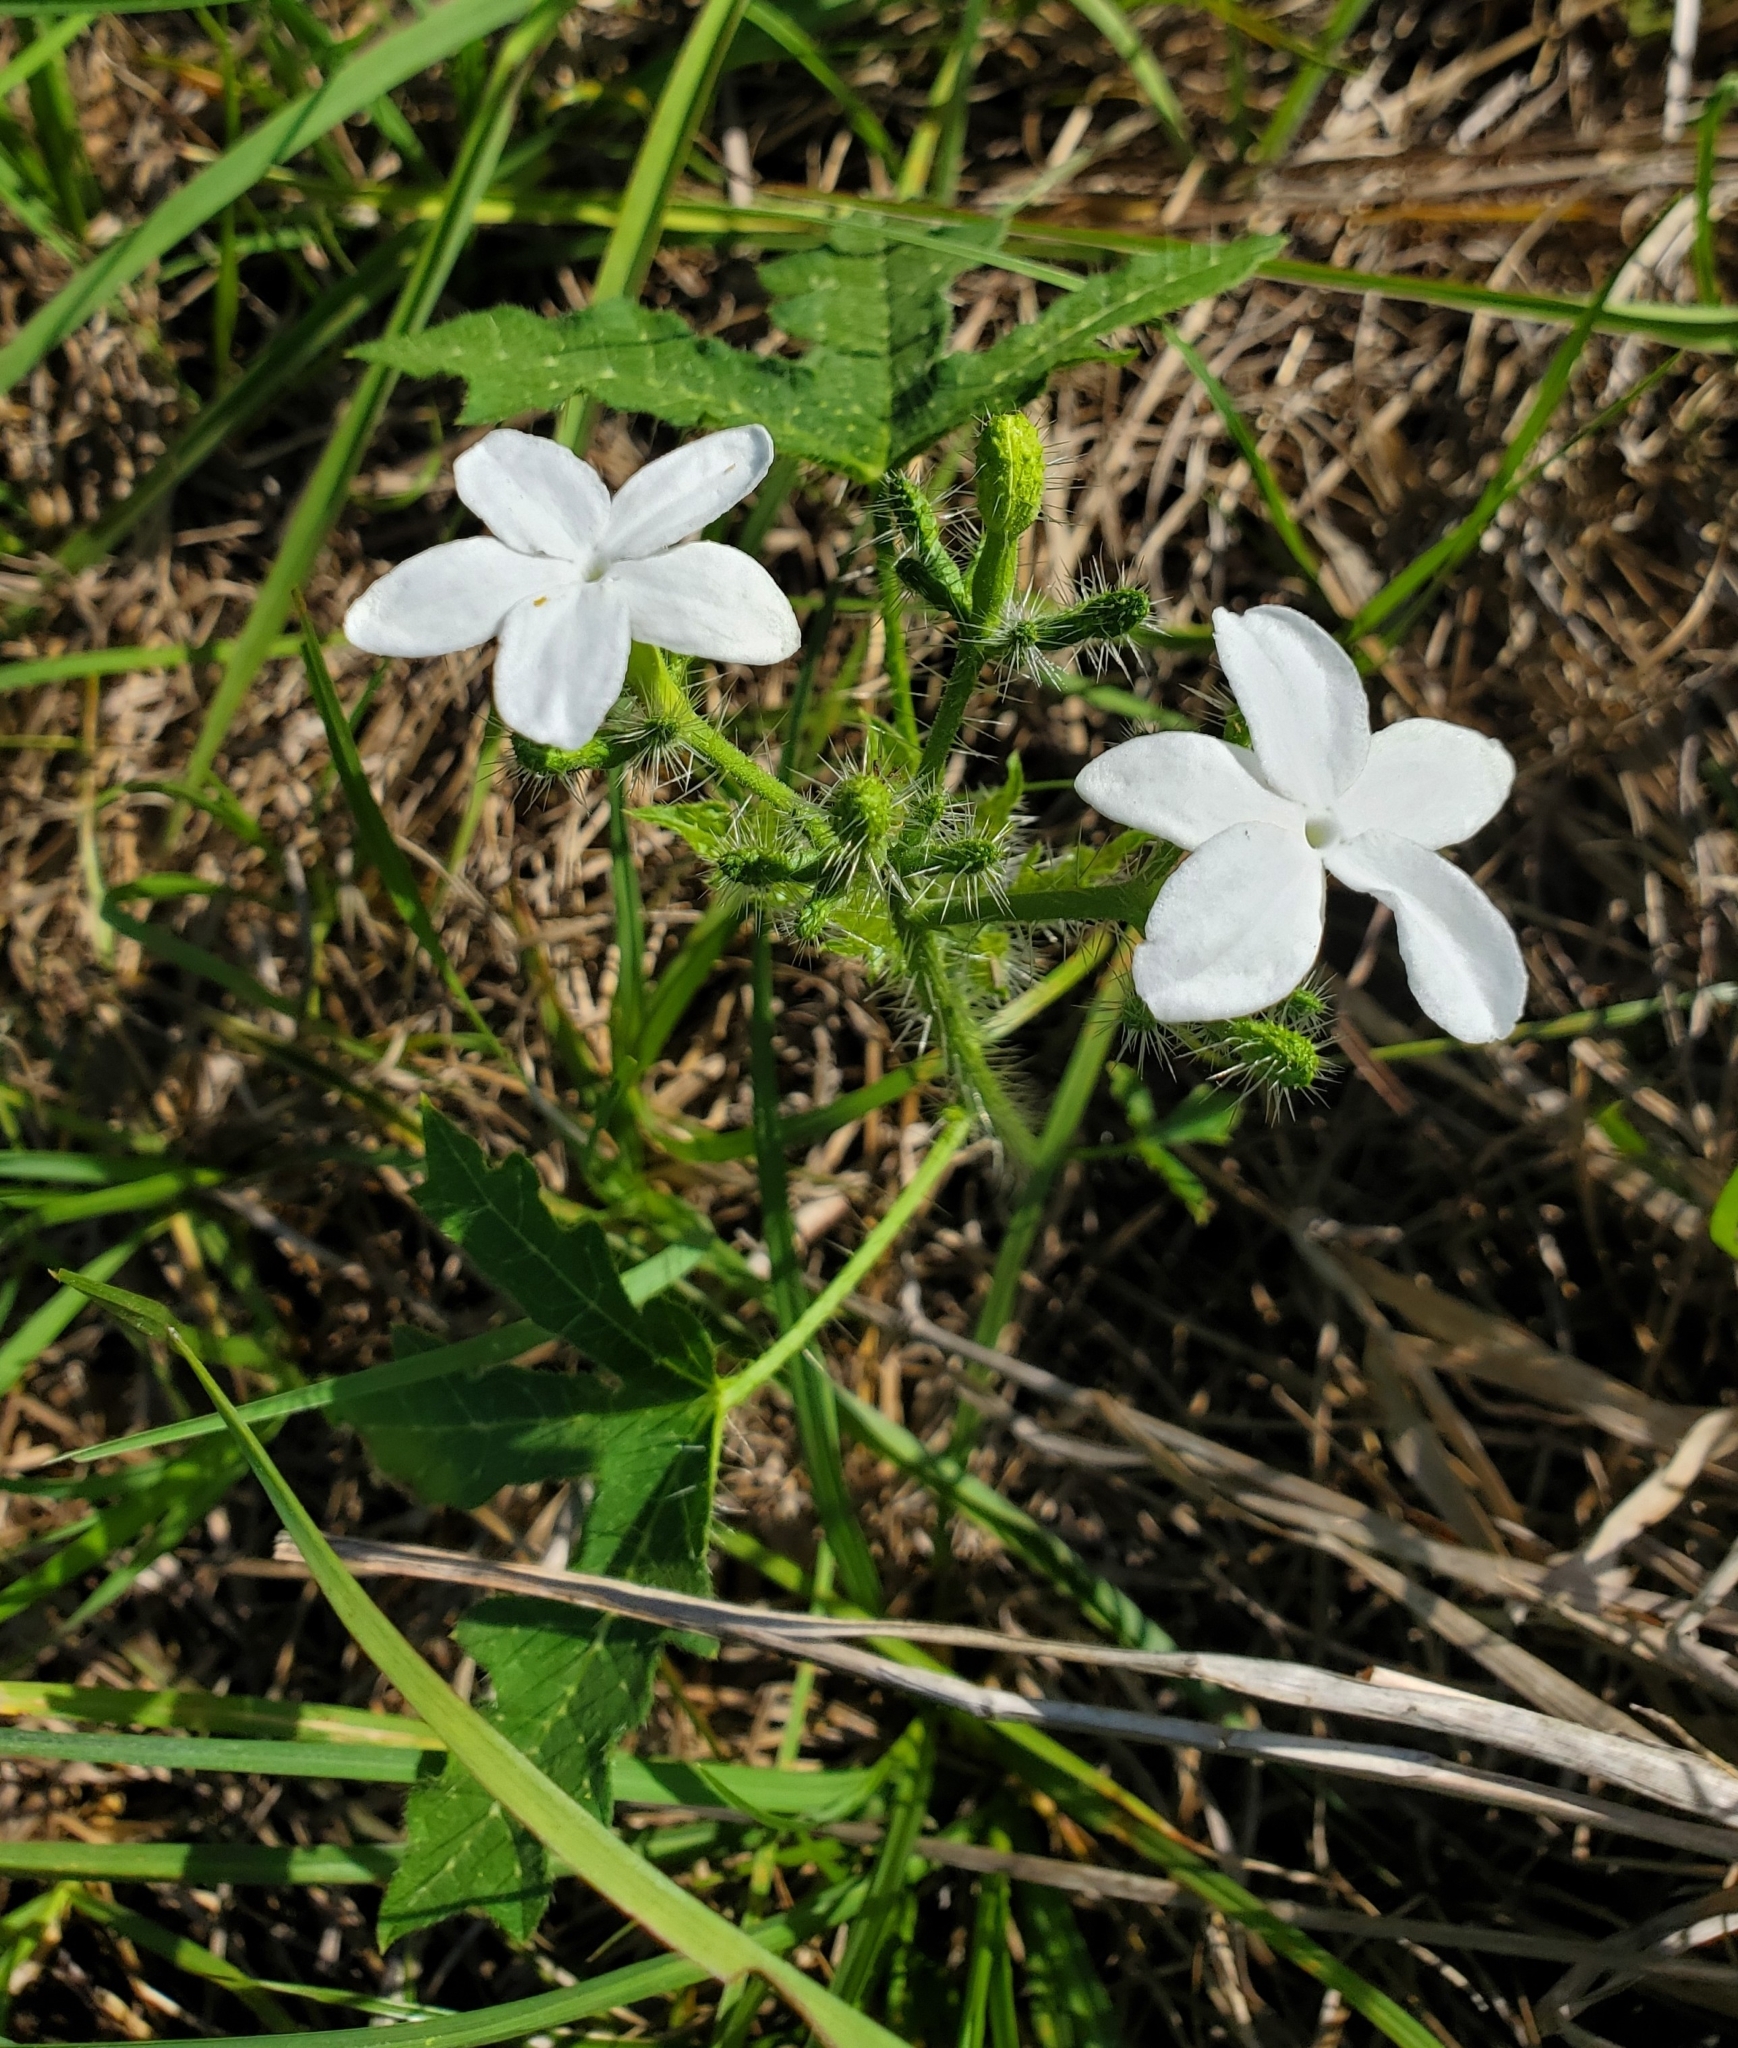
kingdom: Plantae
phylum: Tracheophyta
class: Magnoliopsida
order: Malpighiales
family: Euphorbiaceae
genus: Cnidoscolus
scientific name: Cnidoscolus stimulosus
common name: Bull-nettle
